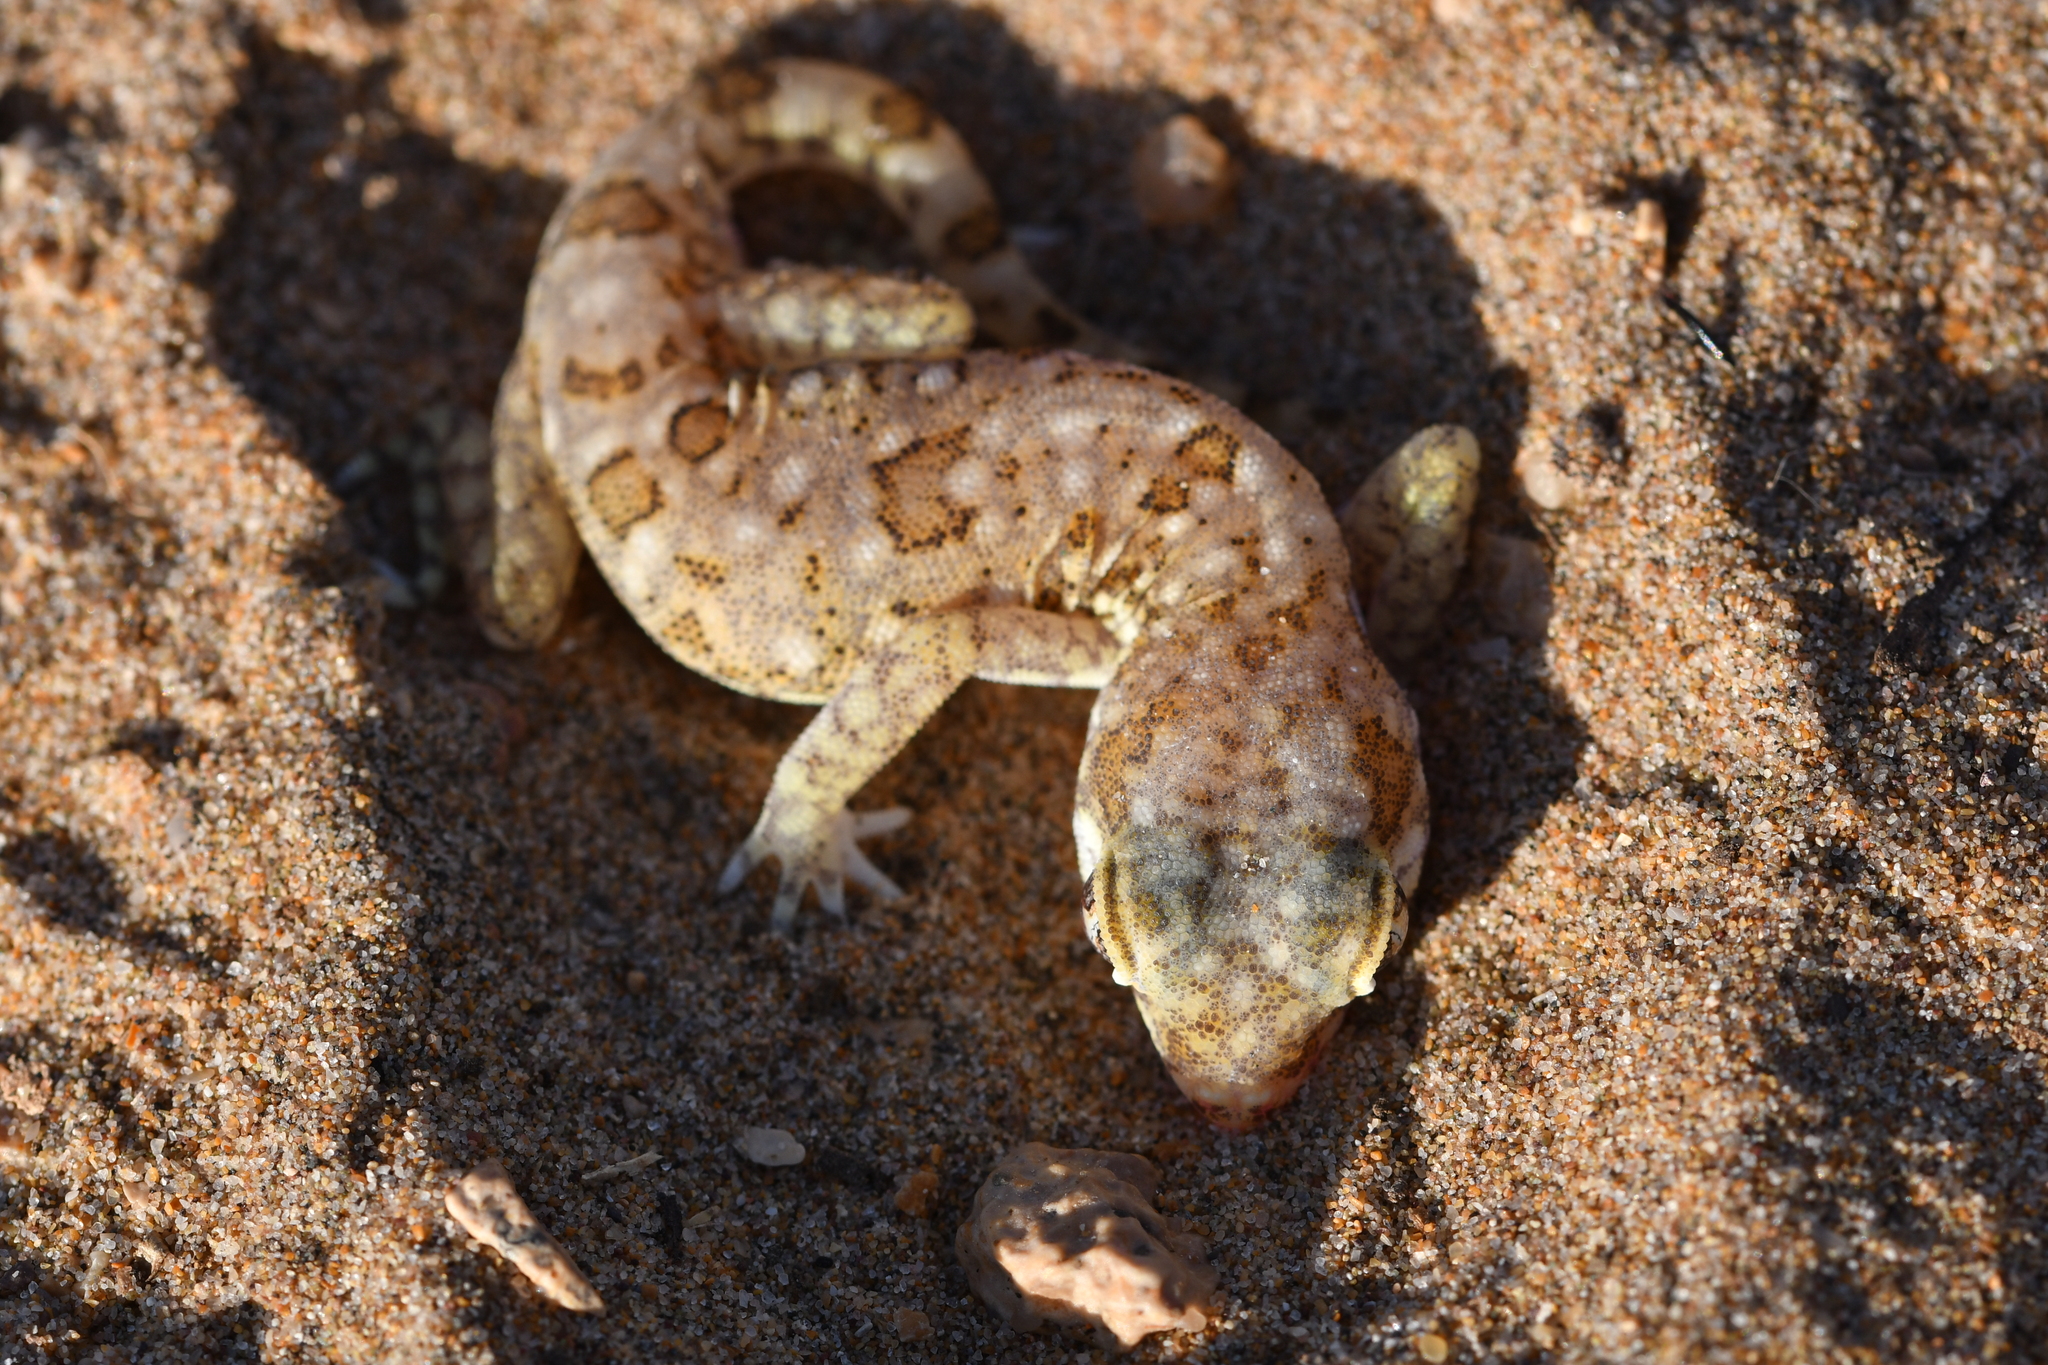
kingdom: Animalia
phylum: Chordata
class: Squamata
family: Gekkonidae
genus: Stenodactylus
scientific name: Stenodactylus mauritanicus
